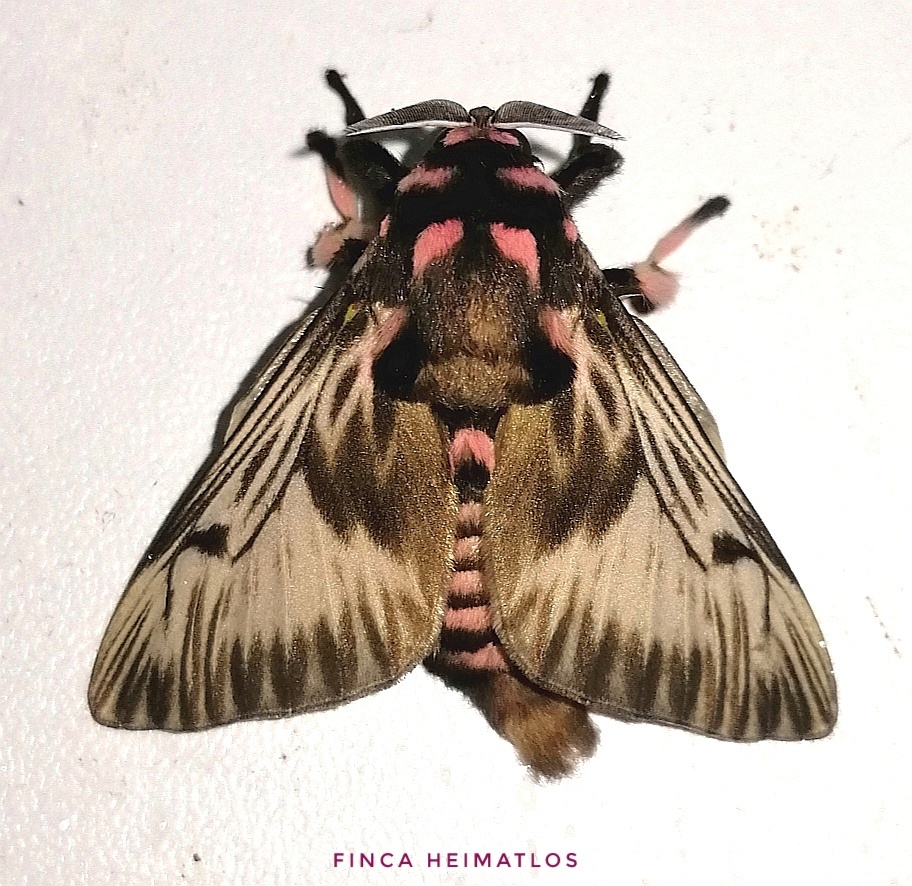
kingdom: Animalia
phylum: Arthropoda
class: Insecta
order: Lepidoptera
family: Megalopygidae
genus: Megalopyge
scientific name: Megalopyge lanata
